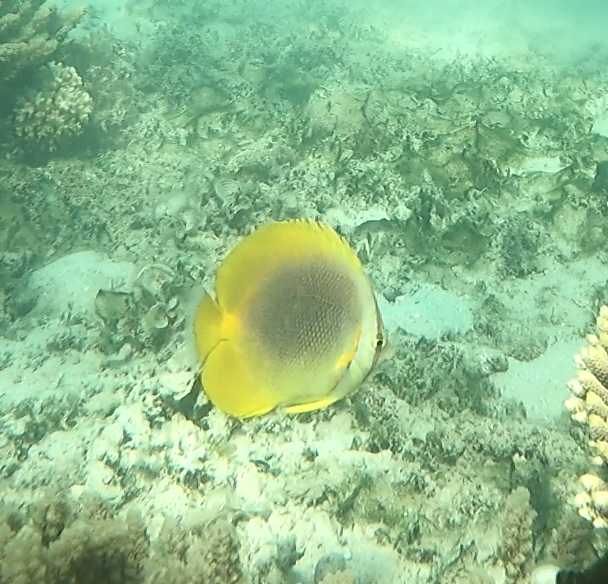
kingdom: Animalia
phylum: Chordata
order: Perciformes
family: Chaetodontidae
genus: Chaetodon
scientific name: Chaetodon aureofasciatus
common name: Golden butterflyfish
